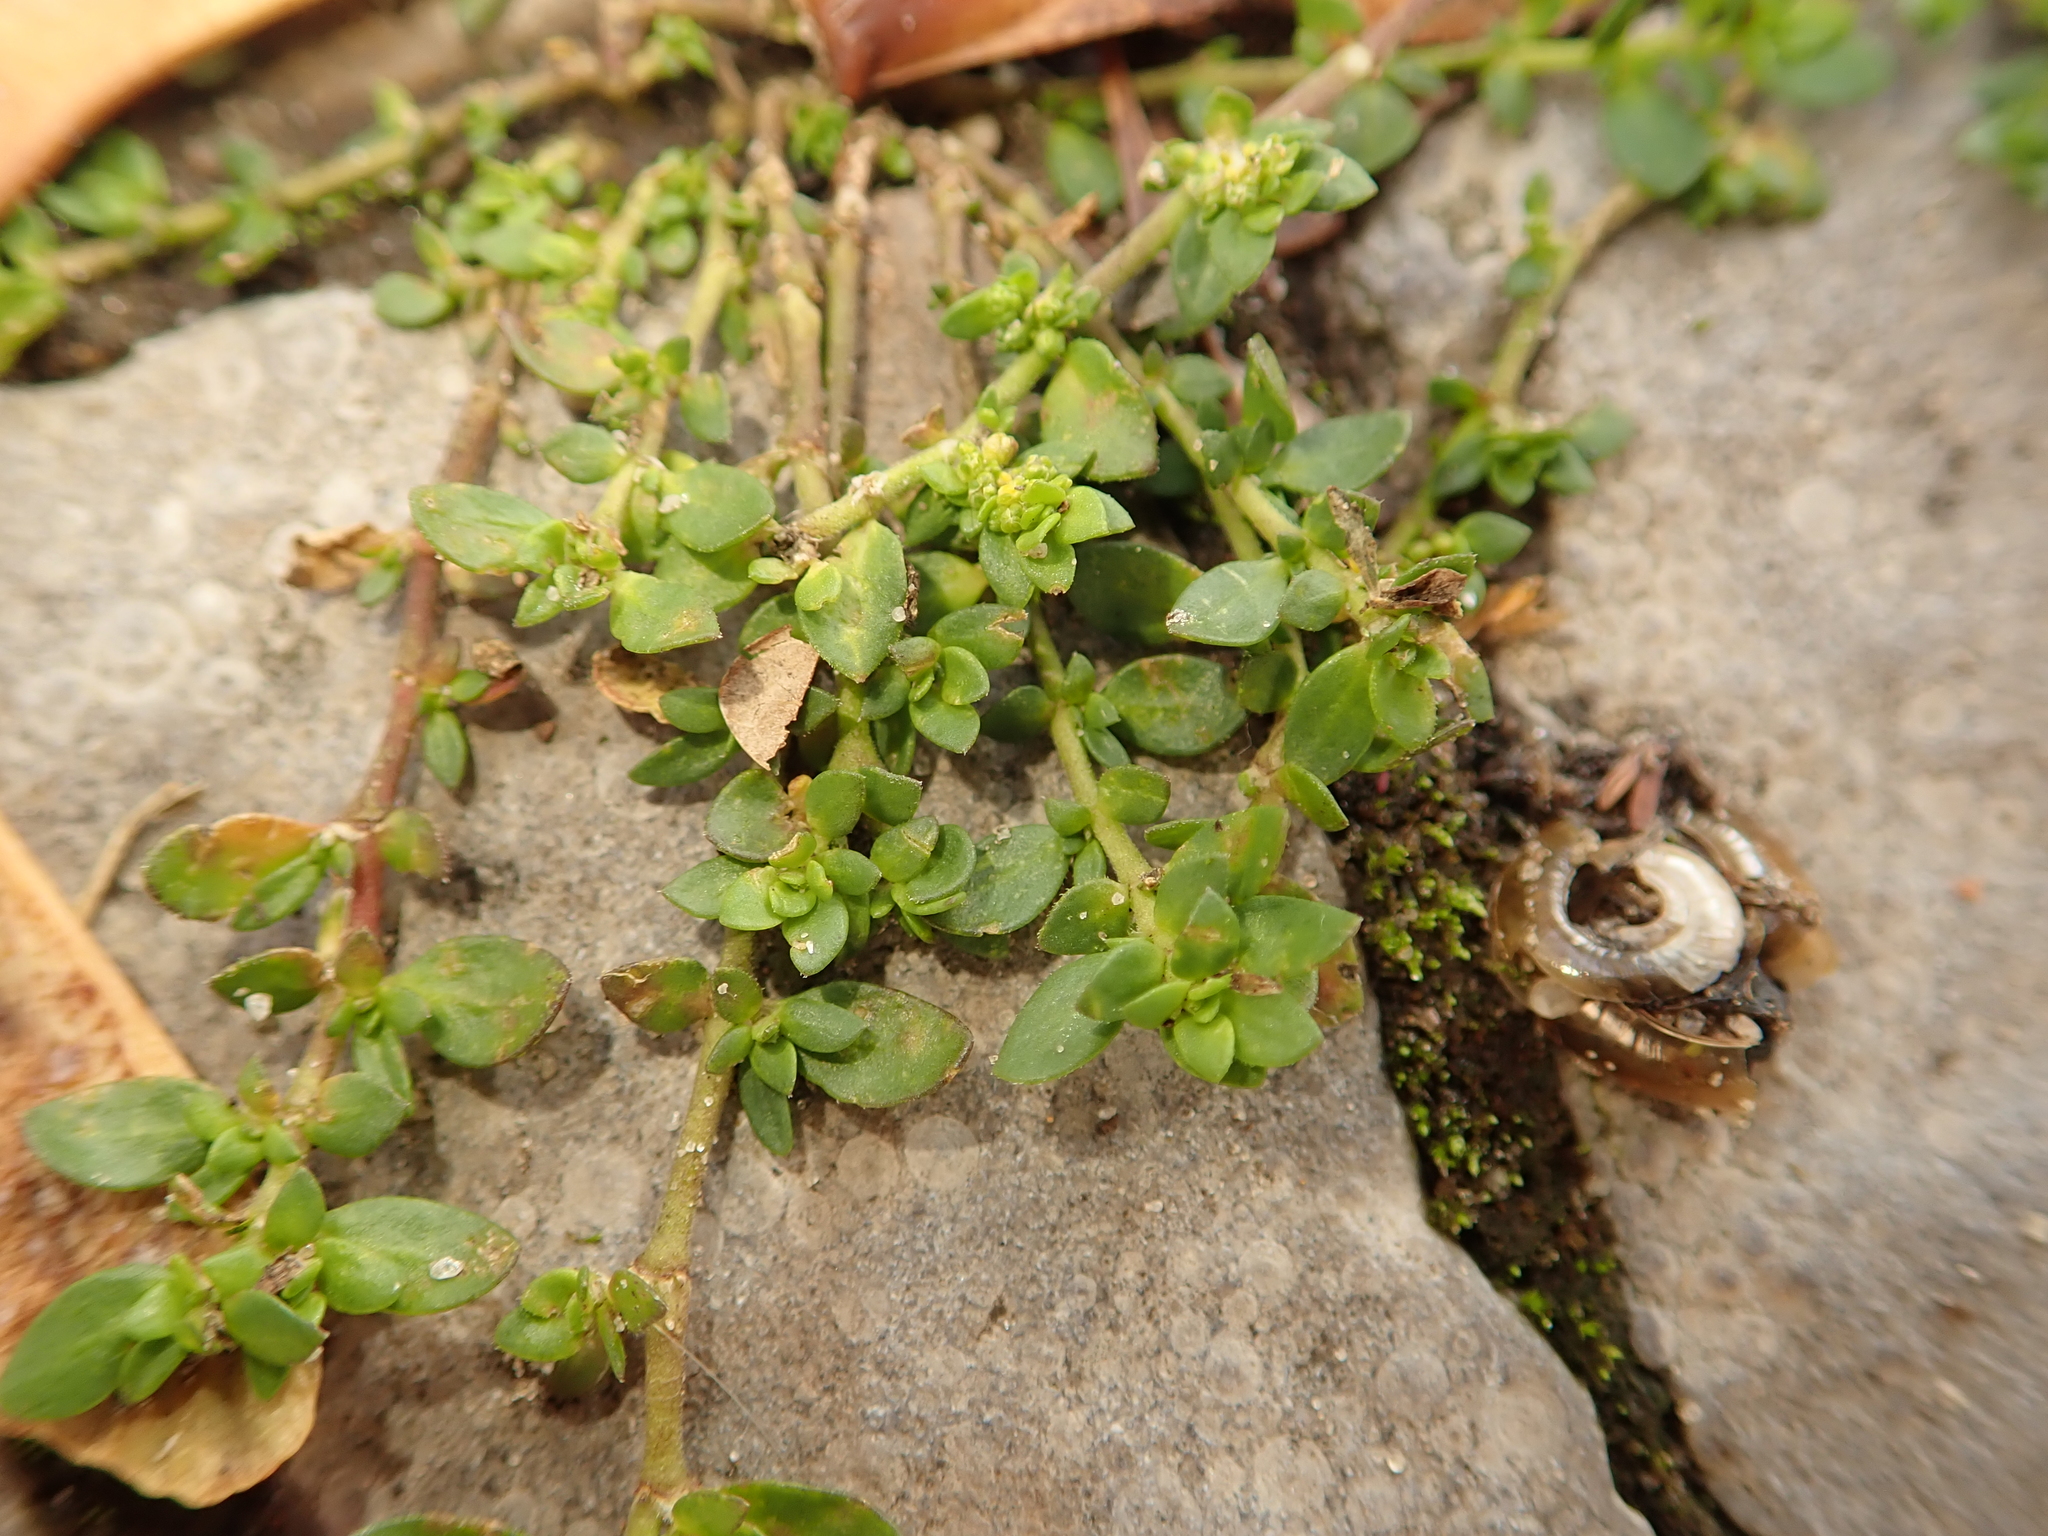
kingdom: Plantae
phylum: Tracheophyta
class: Magnoliopsida
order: Caryophyllales
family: Caryophyllaceae
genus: Herniaria
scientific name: Herniaria glabra
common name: Smooth rupturewort
